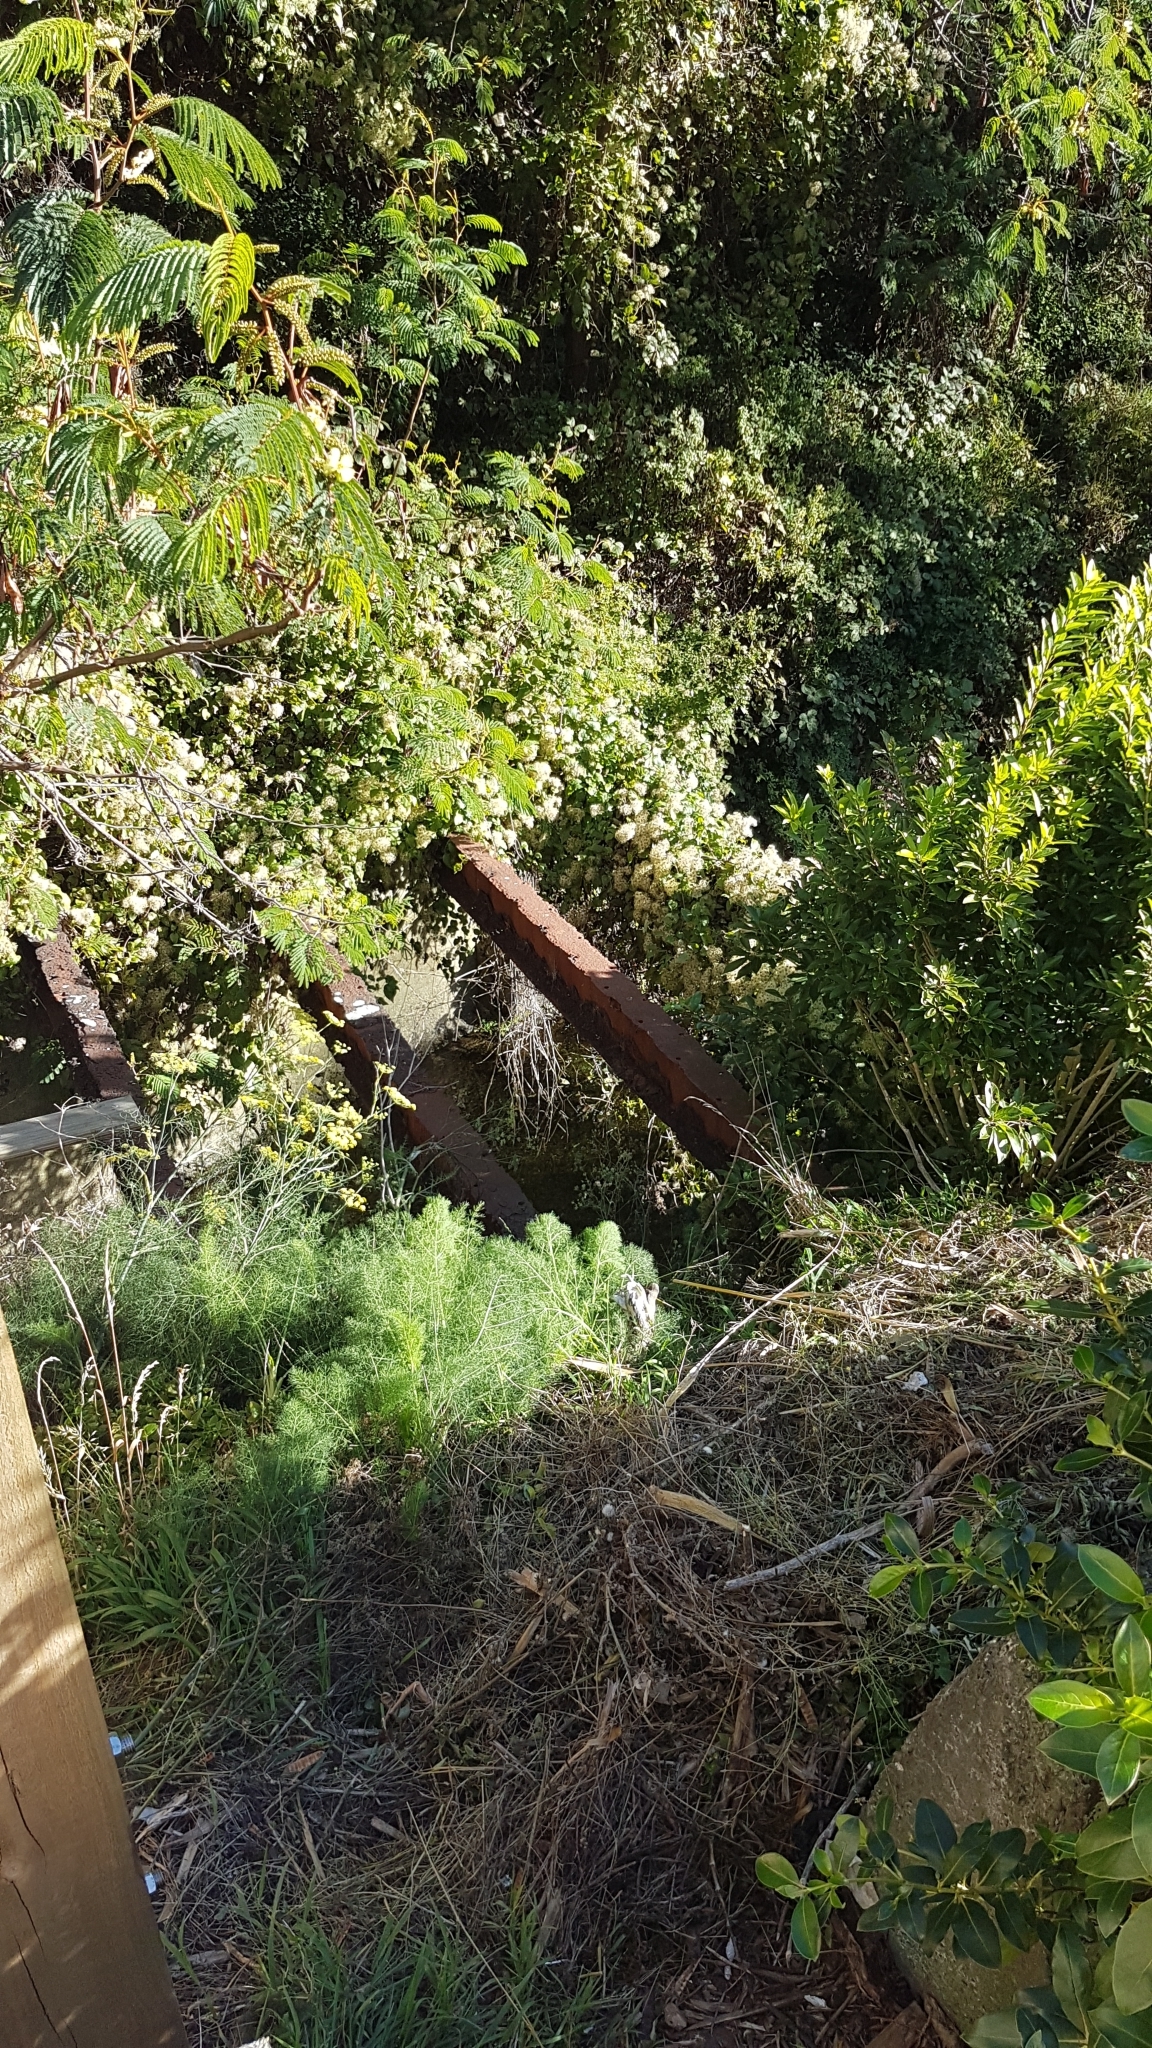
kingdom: Plantae
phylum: Tracheophyta
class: Magnoliopsida
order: Ranunculales
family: Ranunculaceae
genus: Clematis
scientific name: Clematis vitalba
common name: Evergreen clematis
